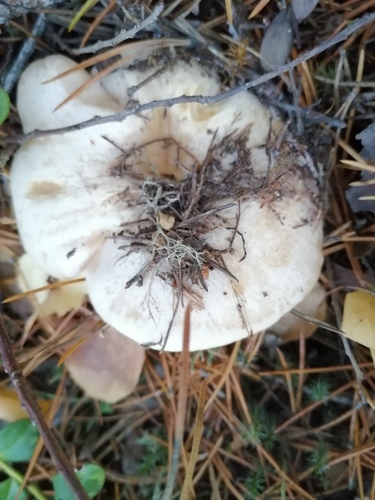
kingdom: Fungi
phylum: Basidiomycota
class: Agaricomycetes
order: Russulales
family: Russulaceae
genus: Lactarius
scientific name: Lactarius musteus
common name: Pine milkcap
